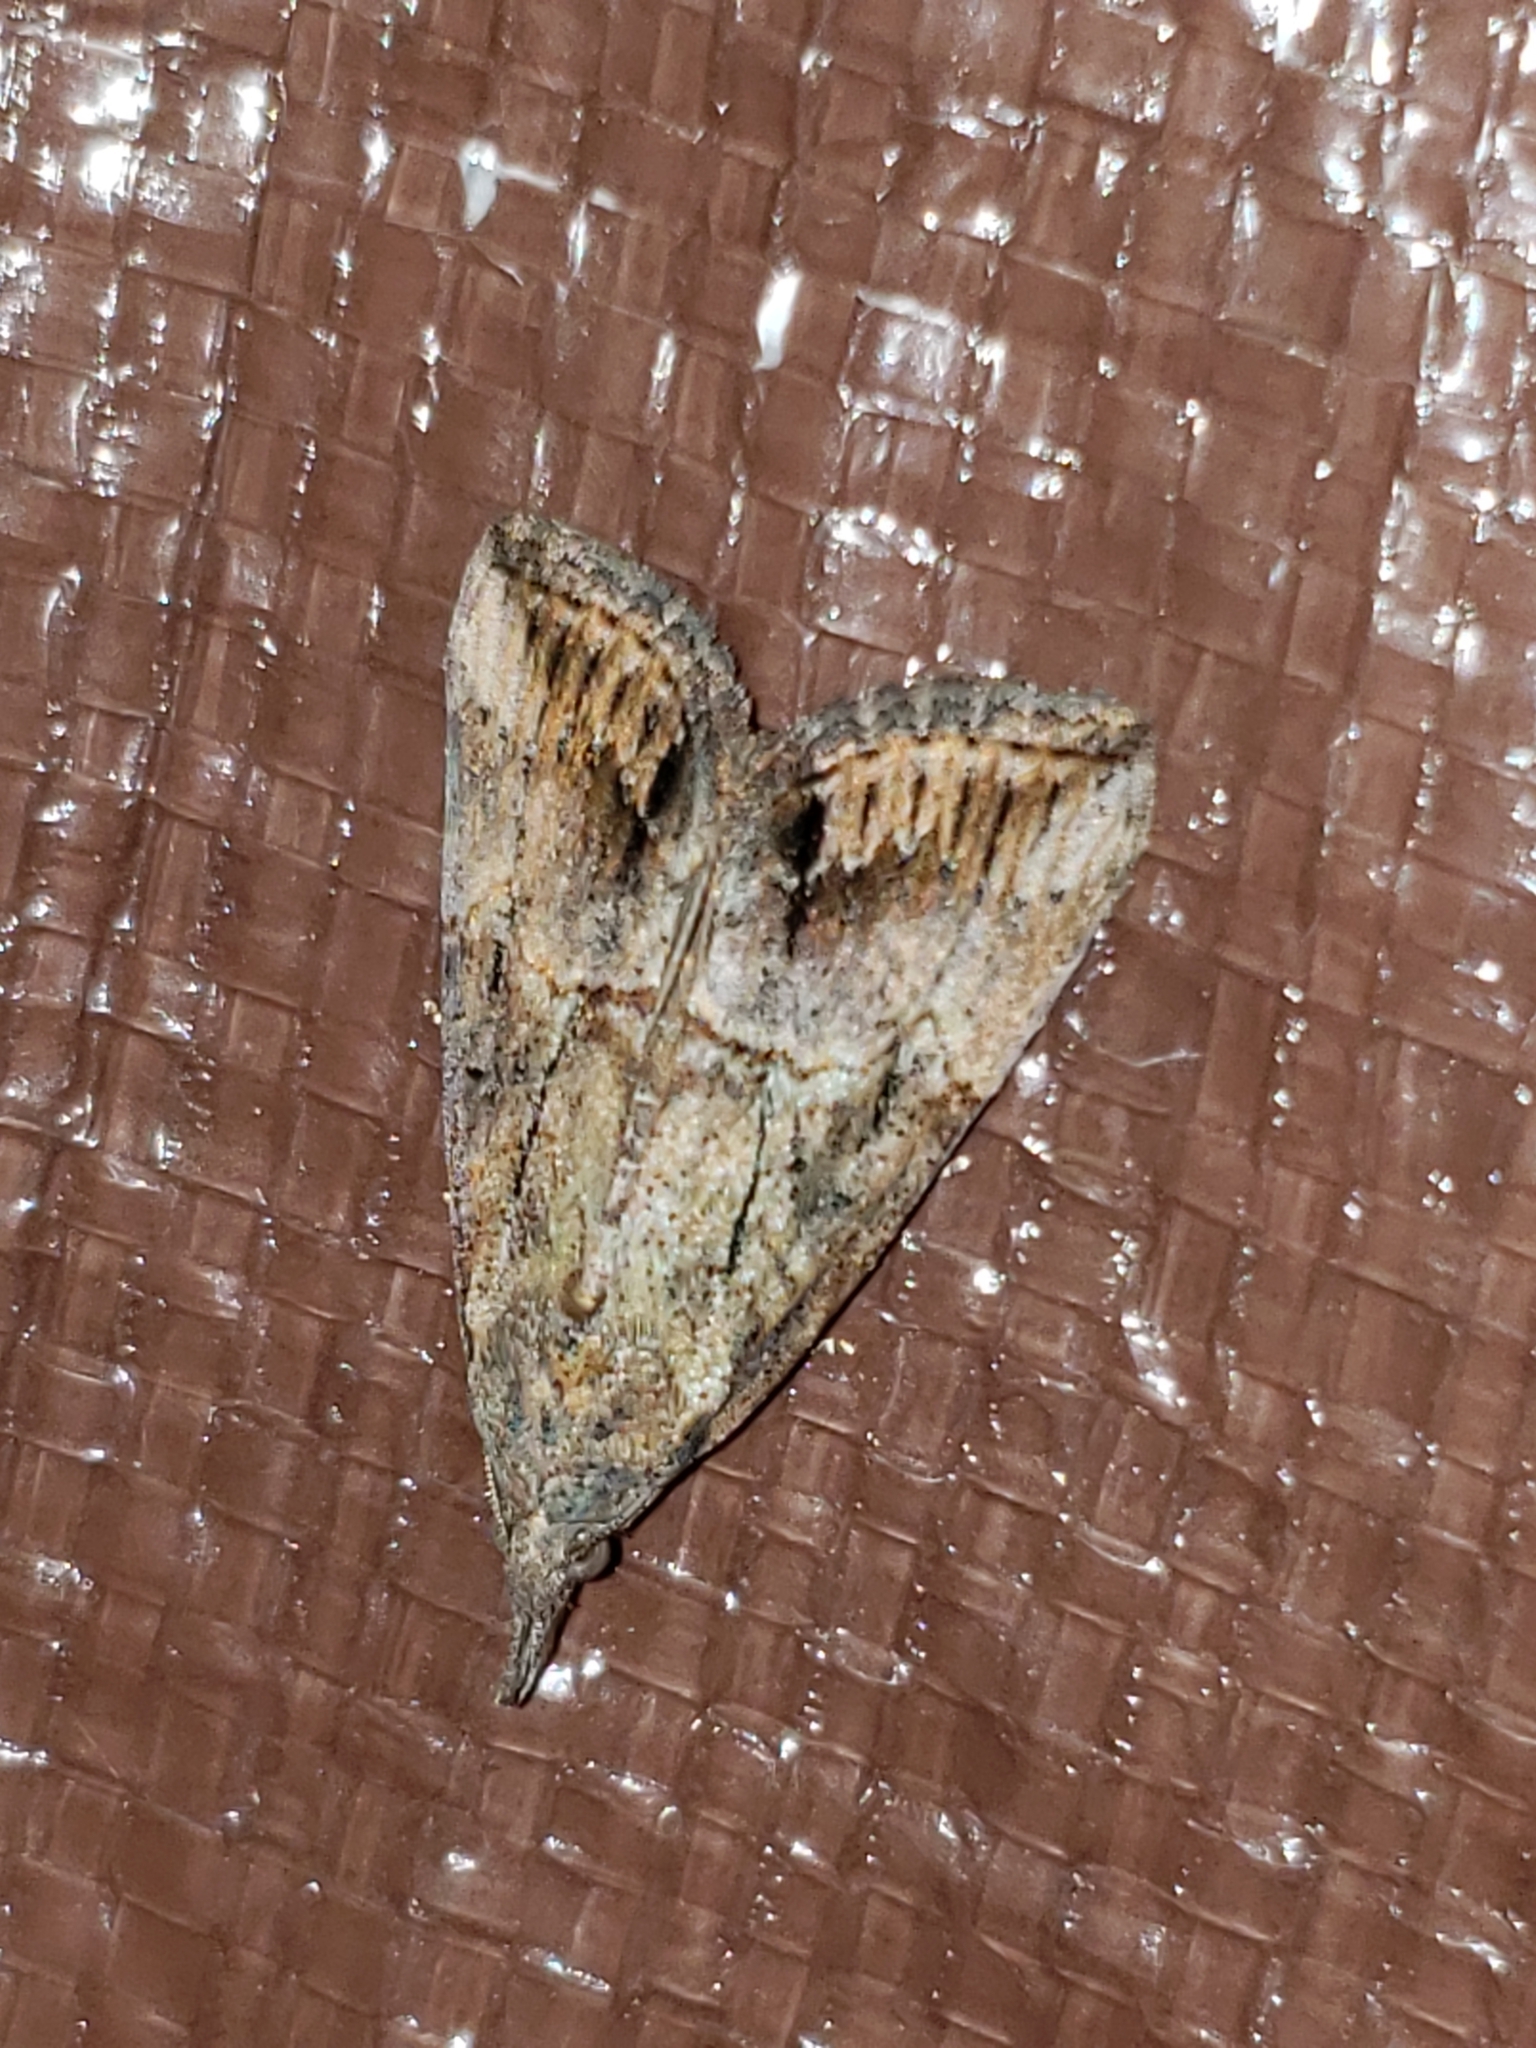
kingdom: Animalia
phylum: Arthropoda
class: Insecta
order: Lepidoptera
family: Erebidae
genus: Hypena
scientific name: Hypena scabra
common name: Green cloverworm
